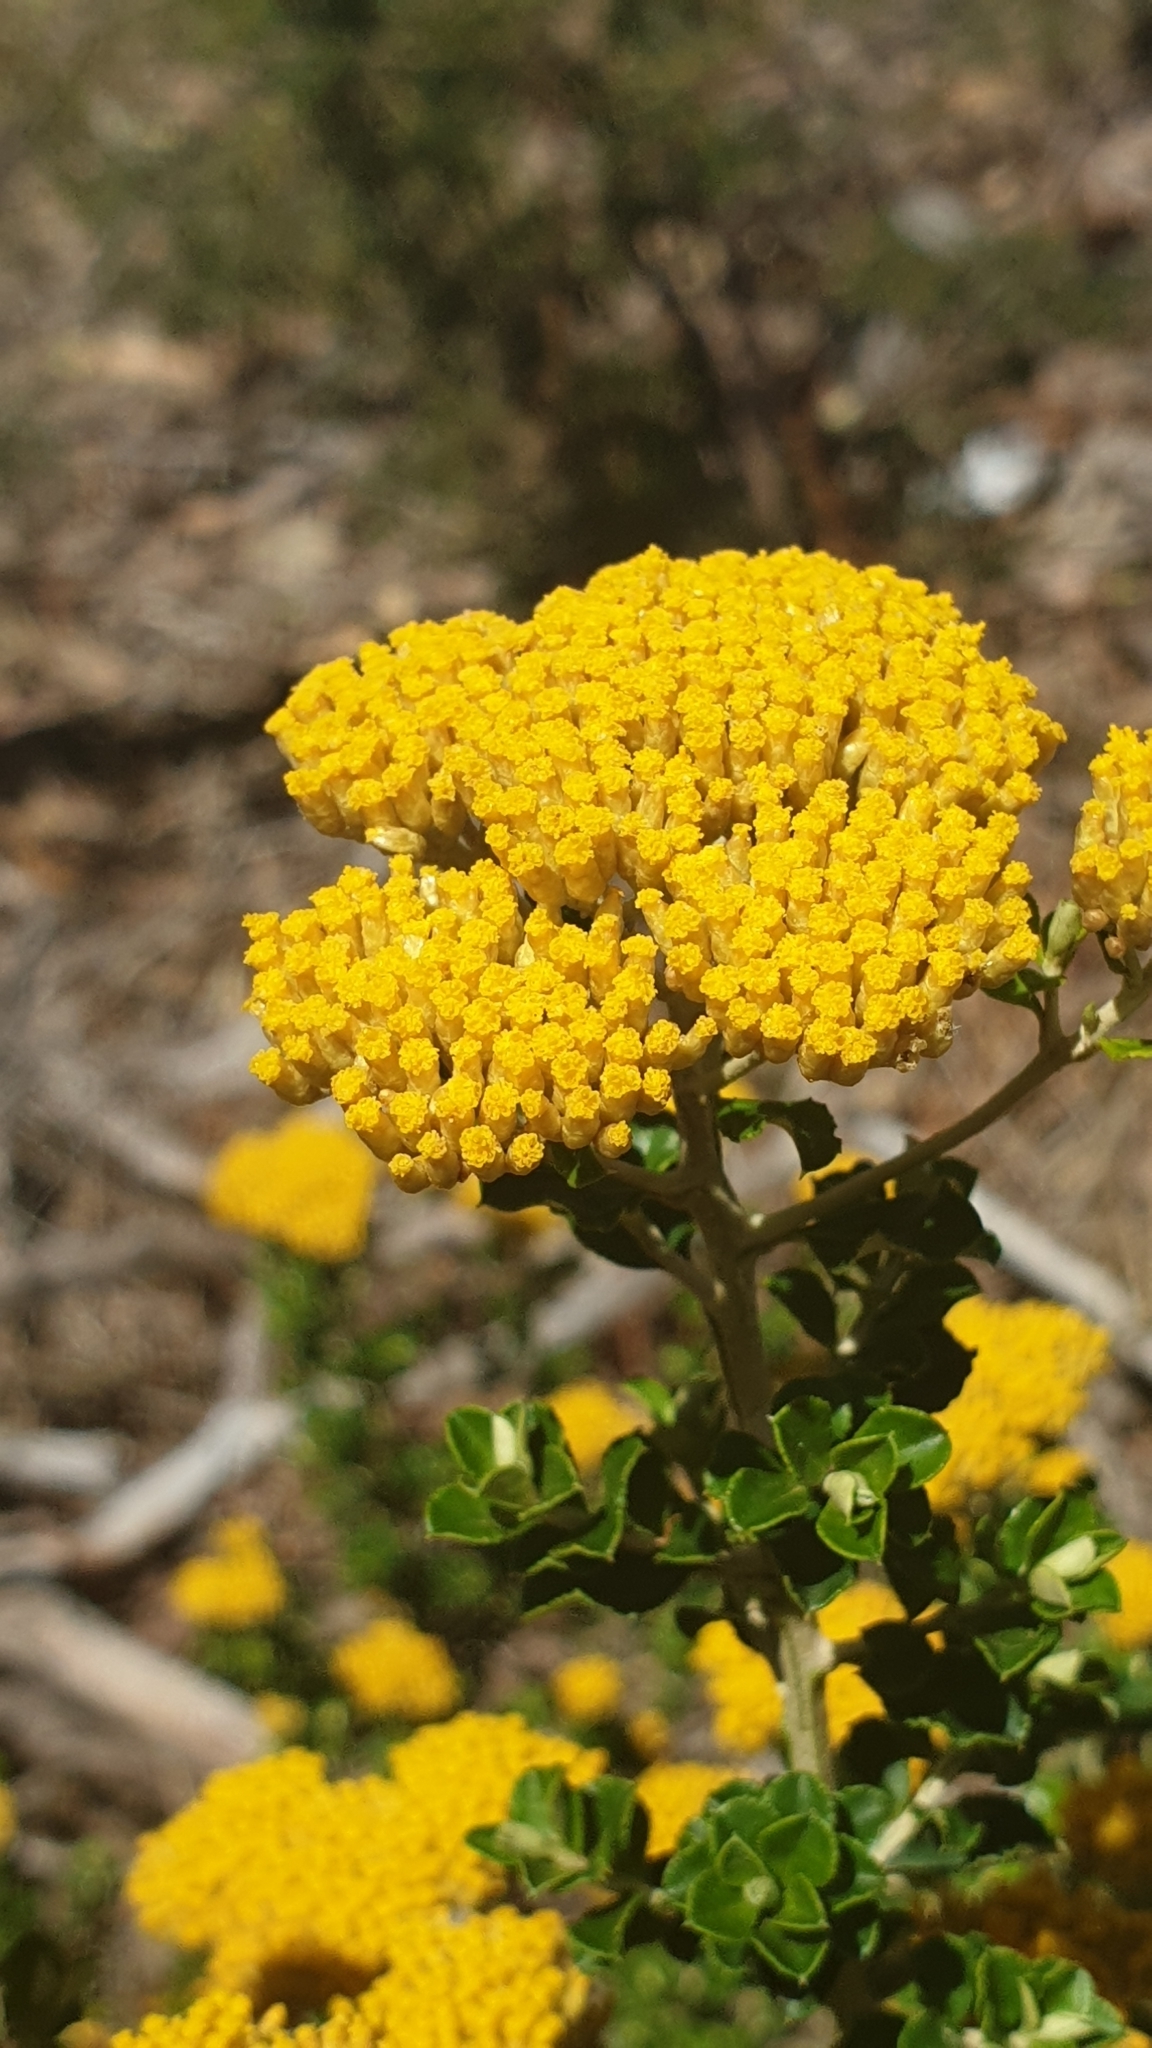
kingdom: Plantae
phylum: Tracheophyta
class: Magnoliopsida
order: Asterales
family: Asteraceae
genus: Ozothamnus
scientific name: Ozothamnus obcordatus
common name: Grey everlasting
